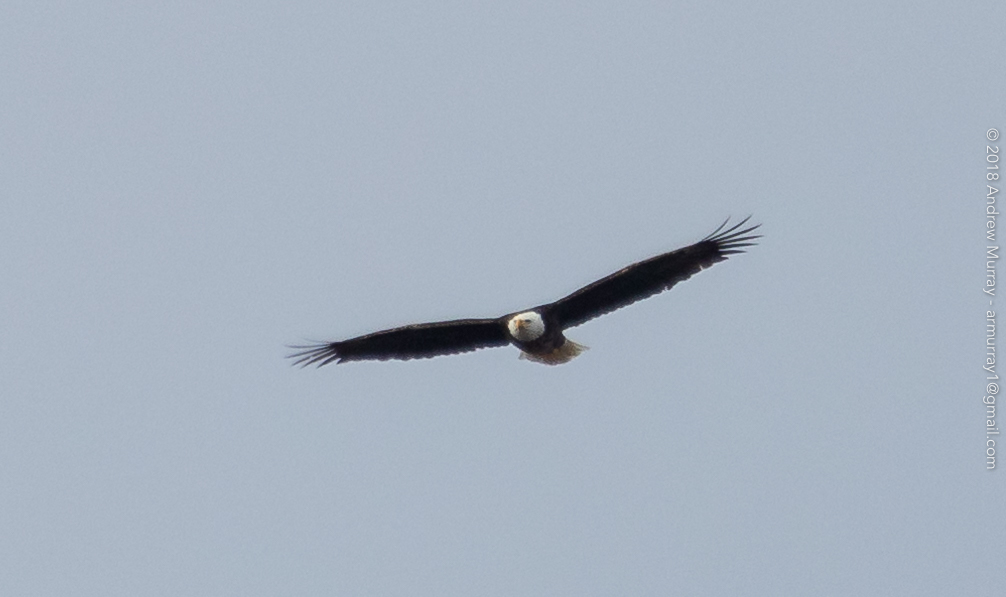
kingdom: Animalia
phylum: Chordata
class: Aves
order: Accipitriformes
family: Accipitridae
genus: Haliaeetus
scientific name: Haliaeetus leucocephalus
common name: Bald eagle
